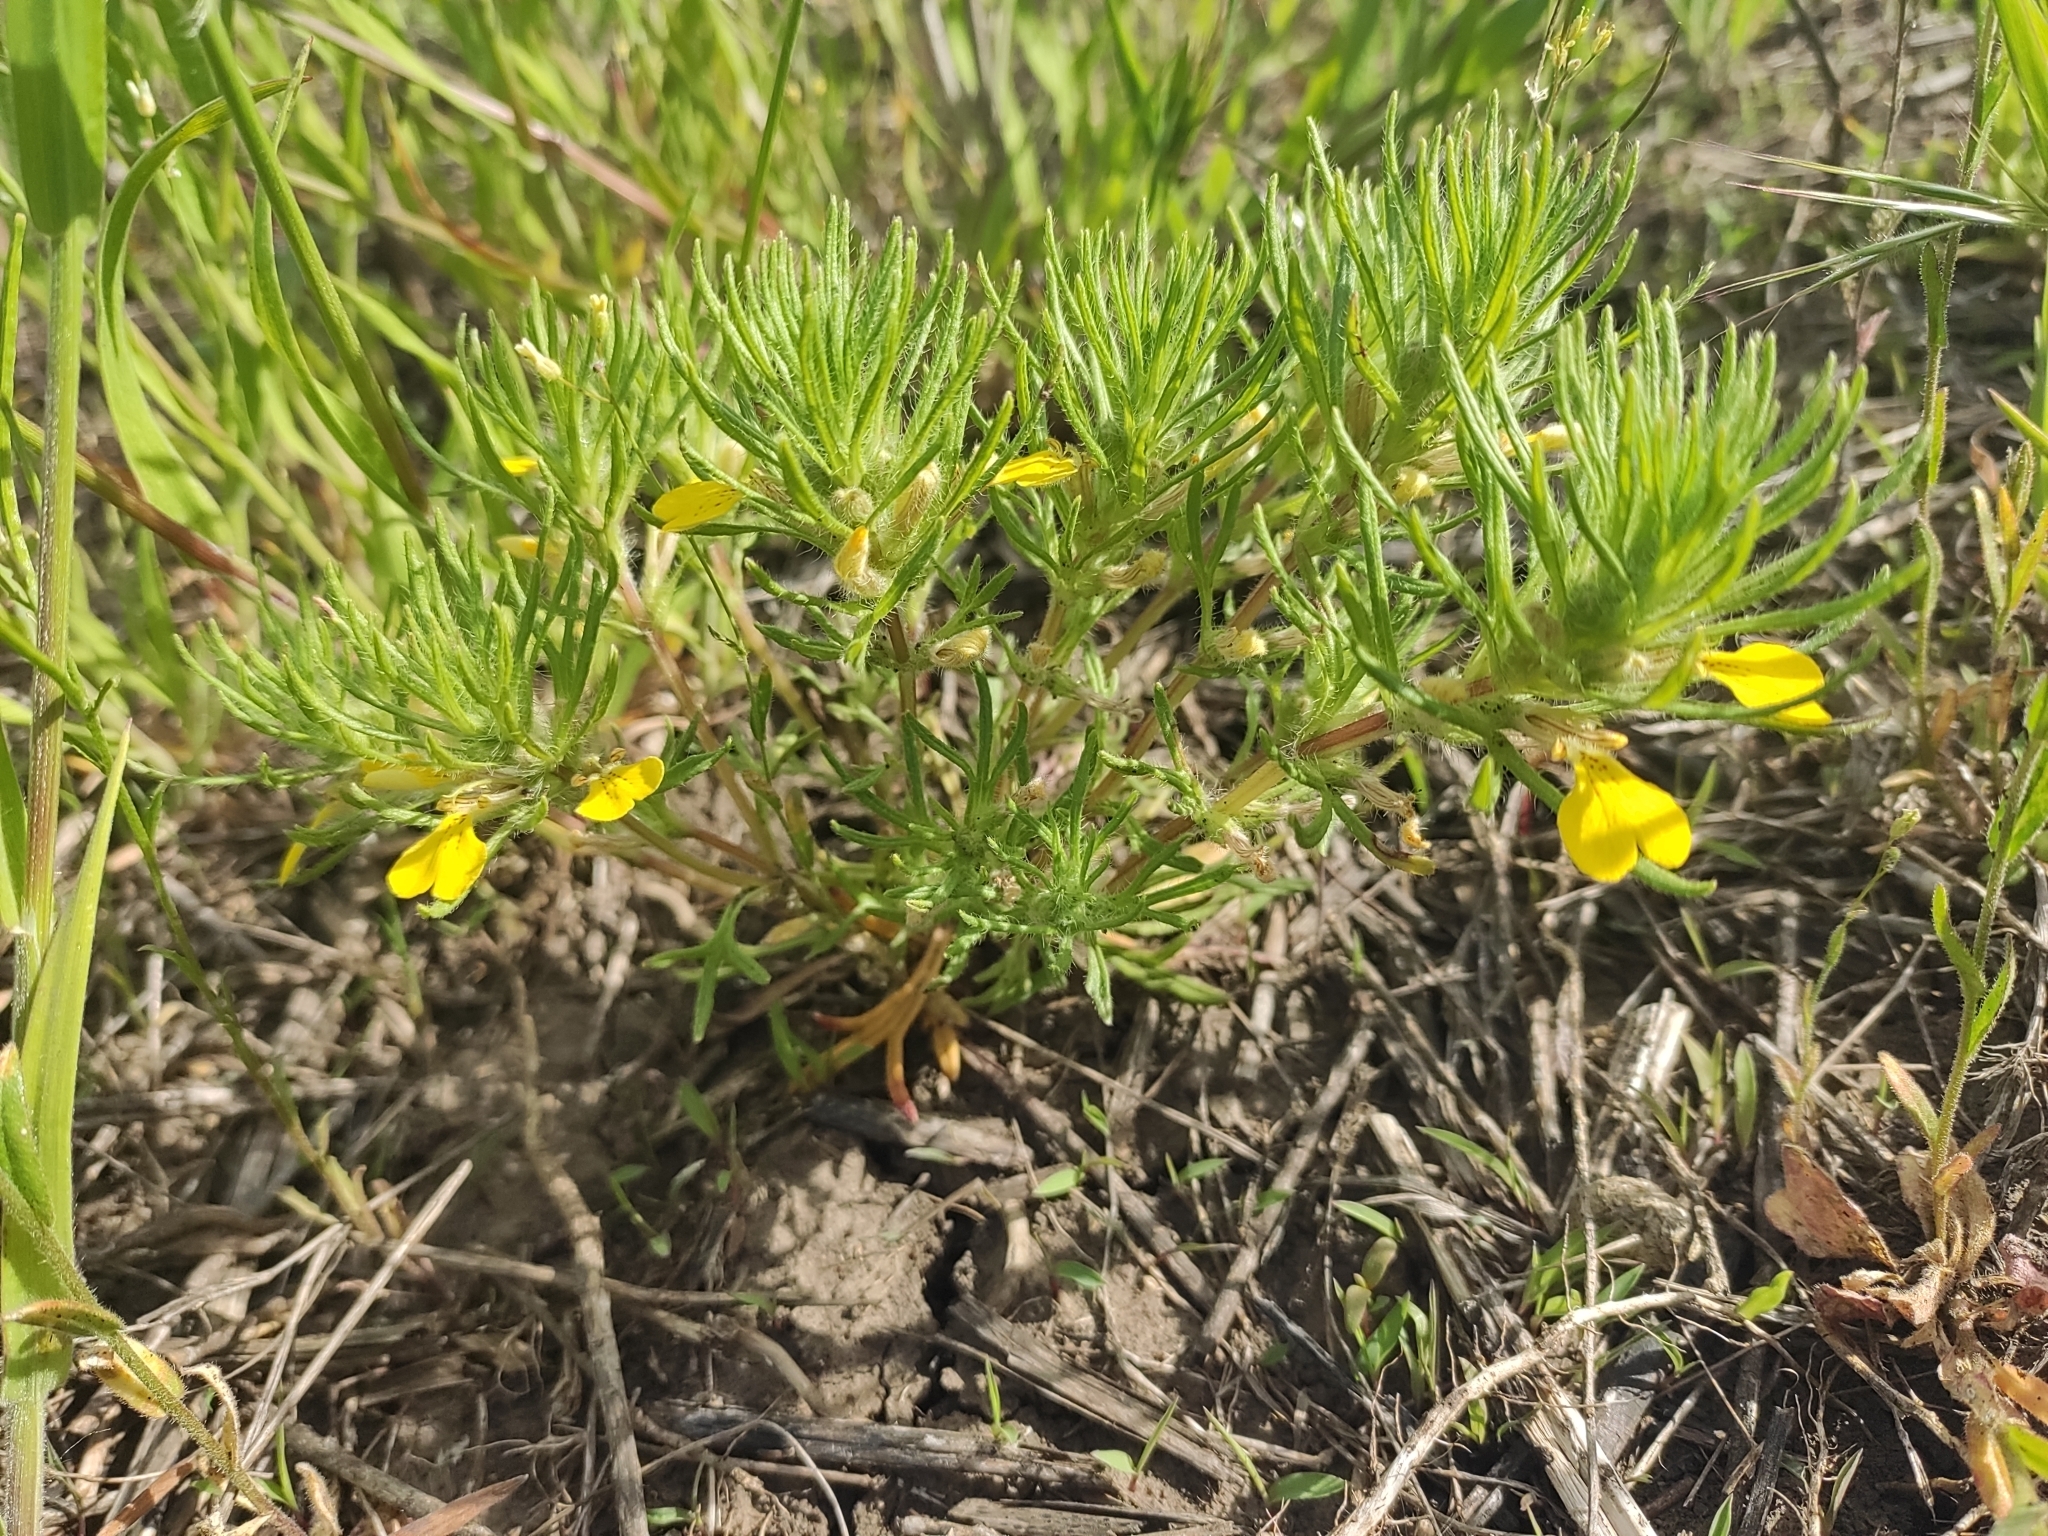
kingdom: Plantae
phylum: Tracheophyta
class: Magnoliopsida
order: Lamiales
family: Lamiaceae
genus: Ajuga
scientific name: Ajuga chamaepitys
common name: Ground-pine
